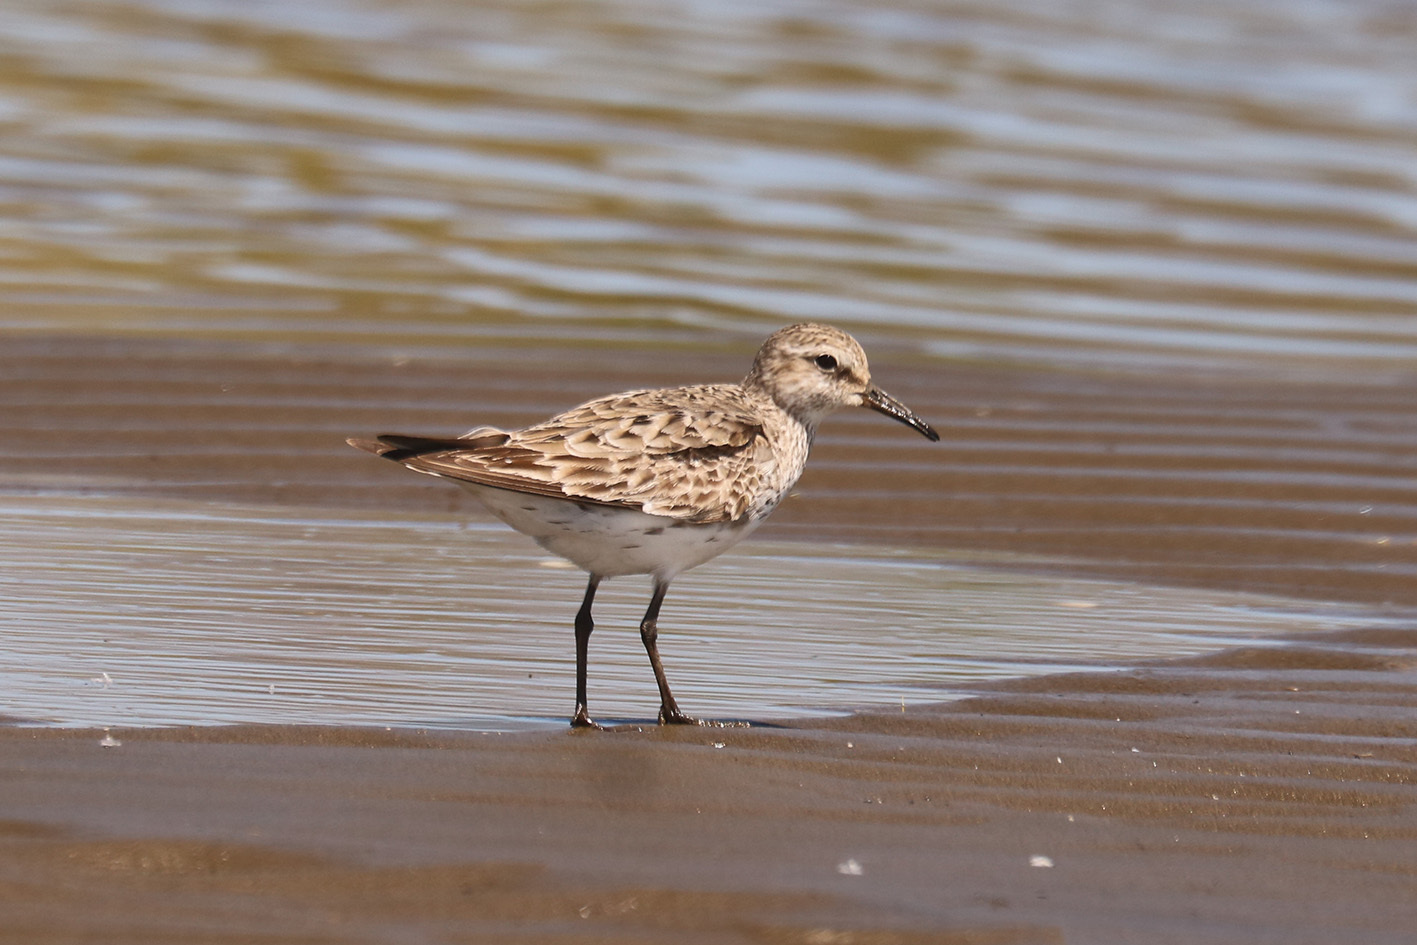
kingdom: Animalia
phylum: Chordata
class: Aves
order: Charadriiformes
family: Scolopacidae
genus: Calidris
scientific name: Calidris fuscicollis
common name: White-rumped sandpiper
